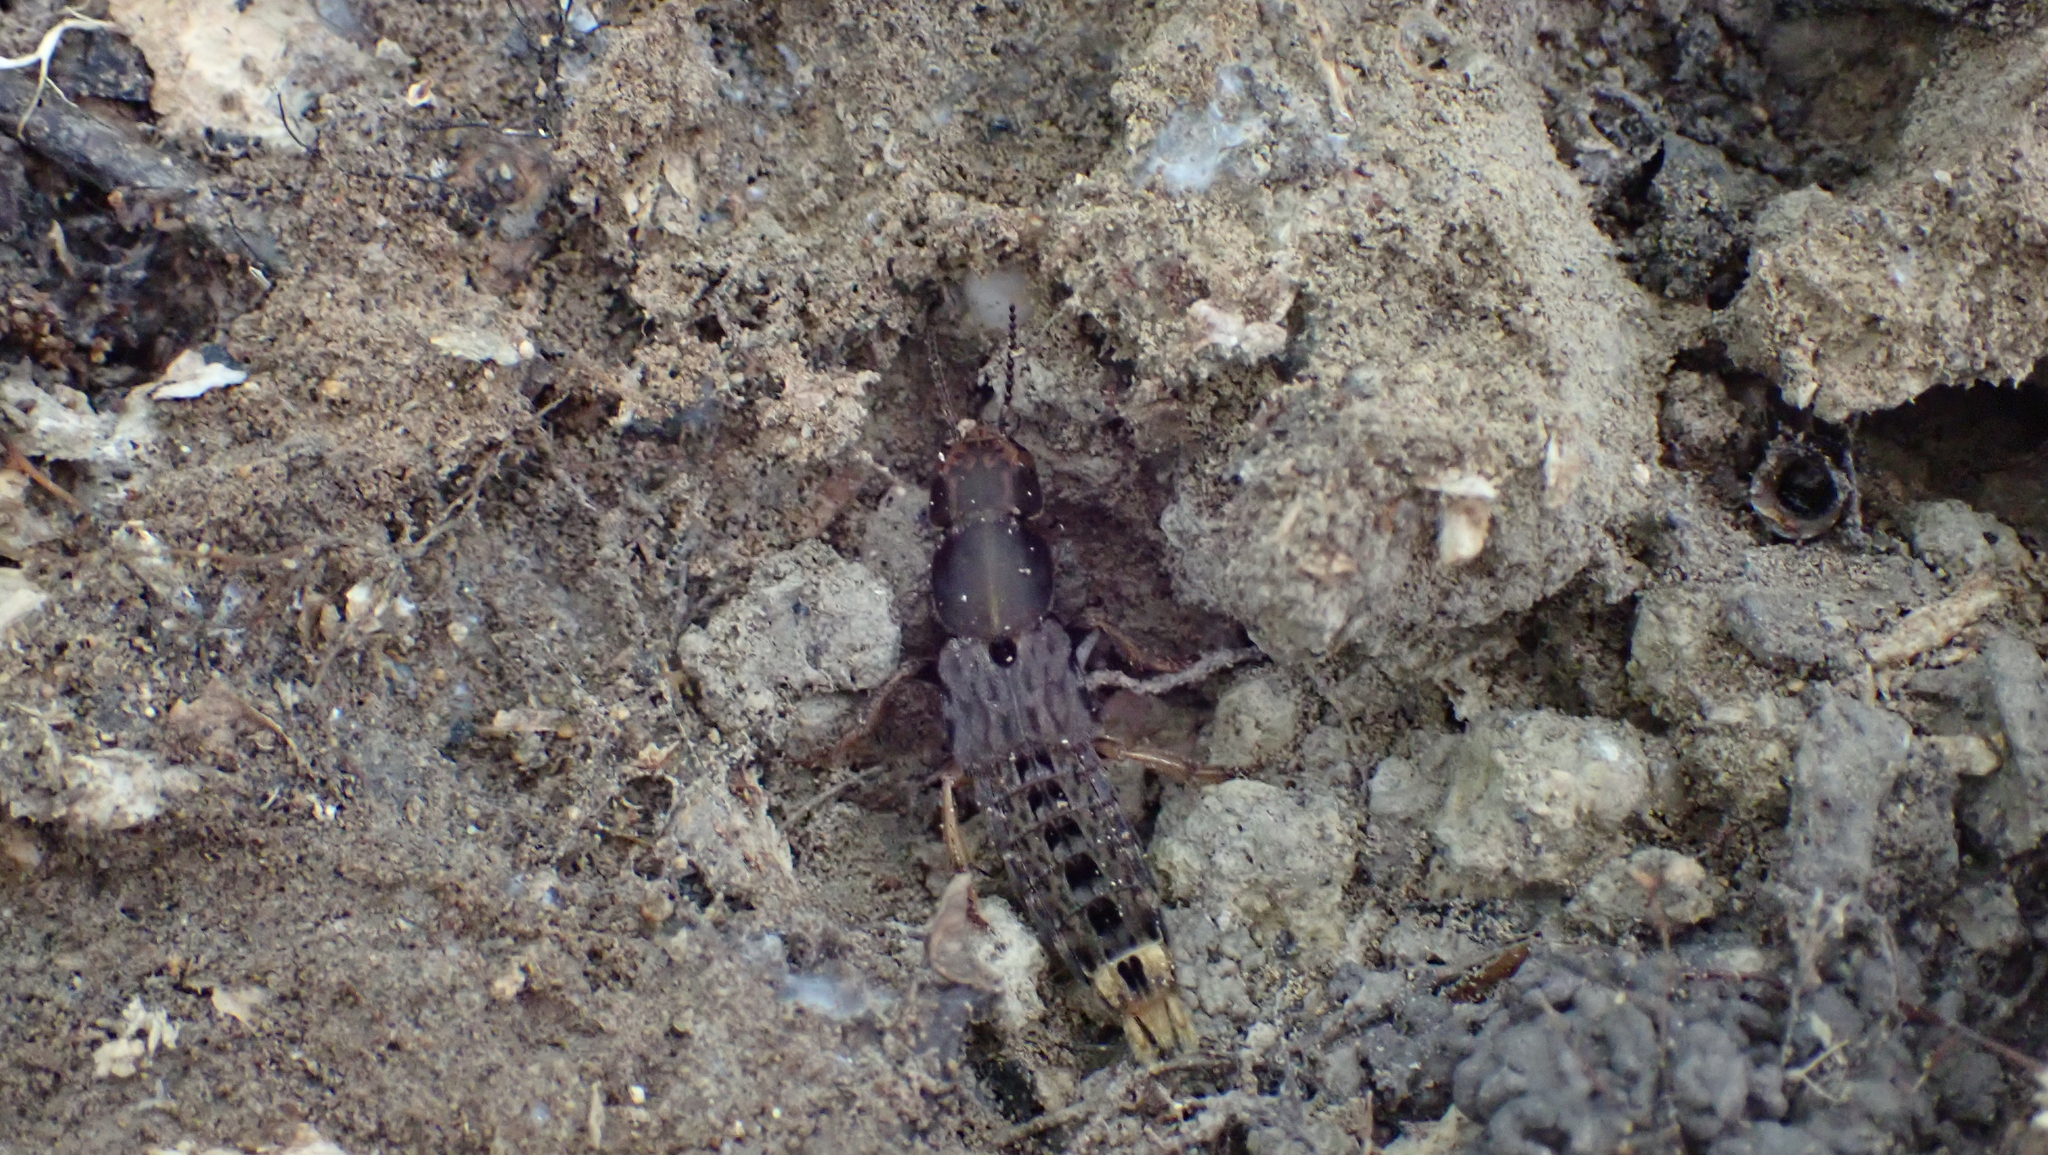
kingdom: Animalia
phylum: Arthropoda
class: Insecta
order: Coleoptera
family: Staphylinidae
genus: Platydracus
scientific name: Platydracus maculosus
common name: Brown rove beetle
